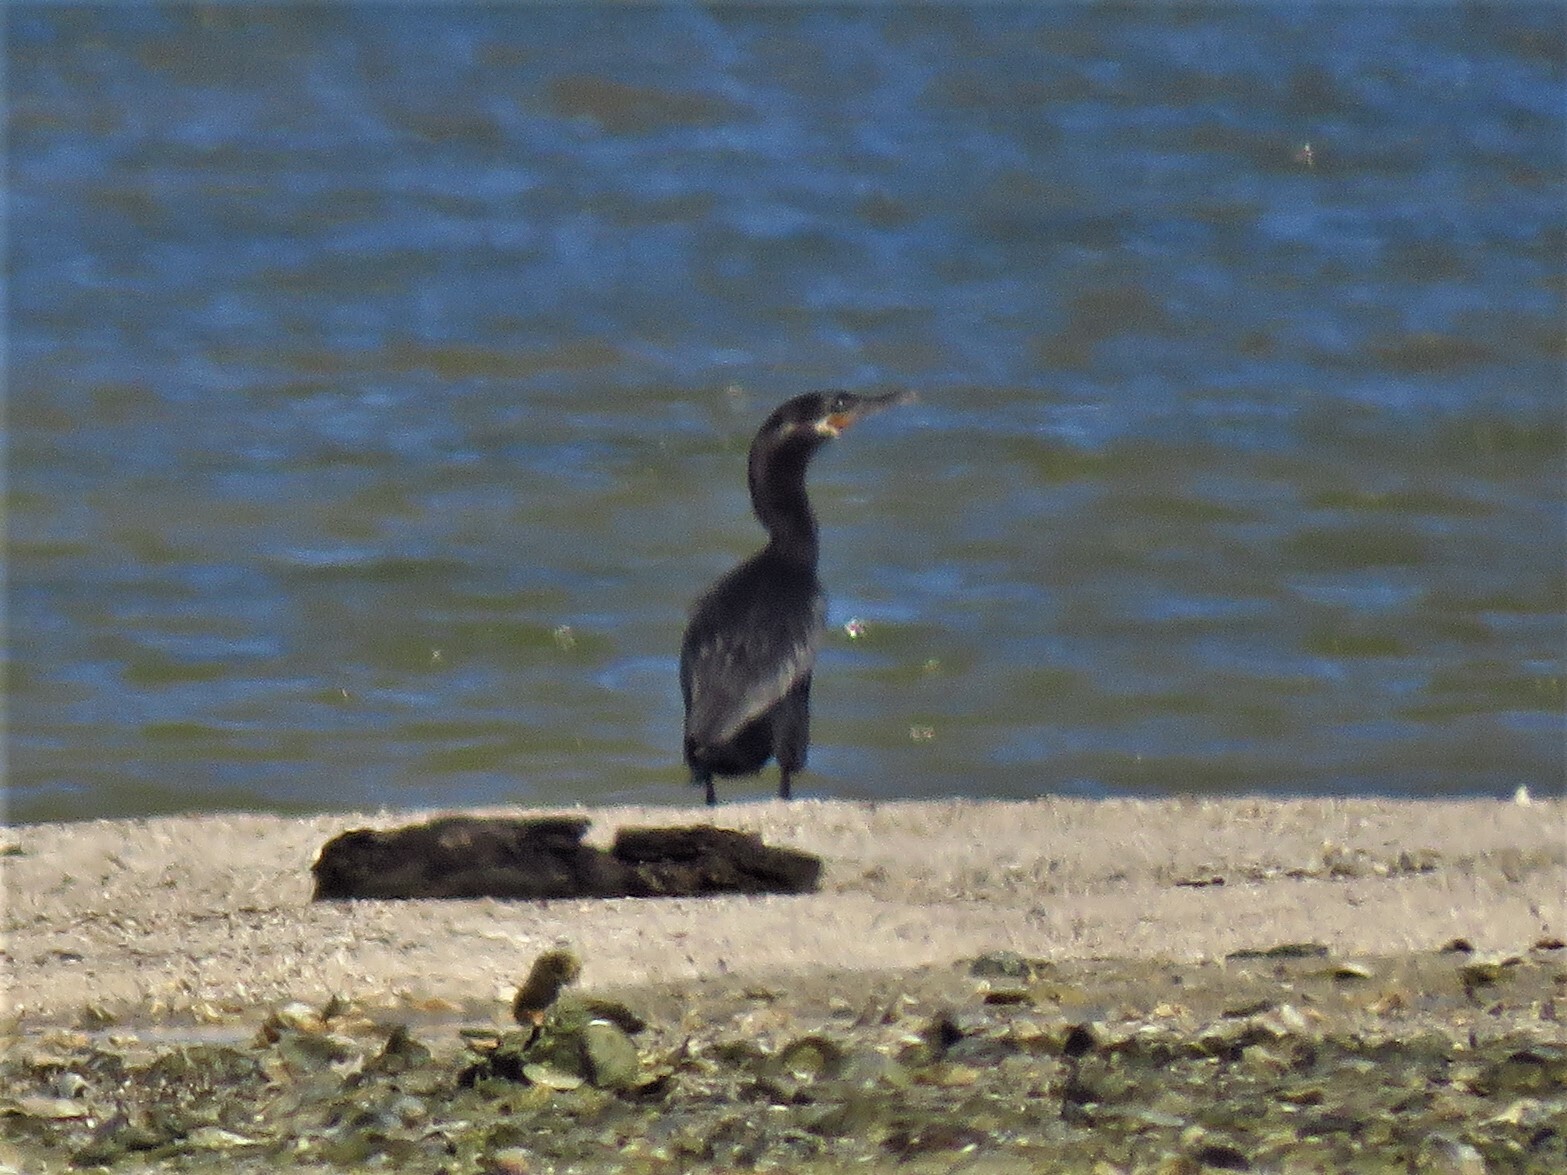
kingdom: Animalia
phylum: Chordata
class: Aves
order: Suliformes
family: Phalacrocoracidae
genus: Phalacrocorax
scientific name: Phalacrocorax brasilianus
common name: Neotropic cormorant
